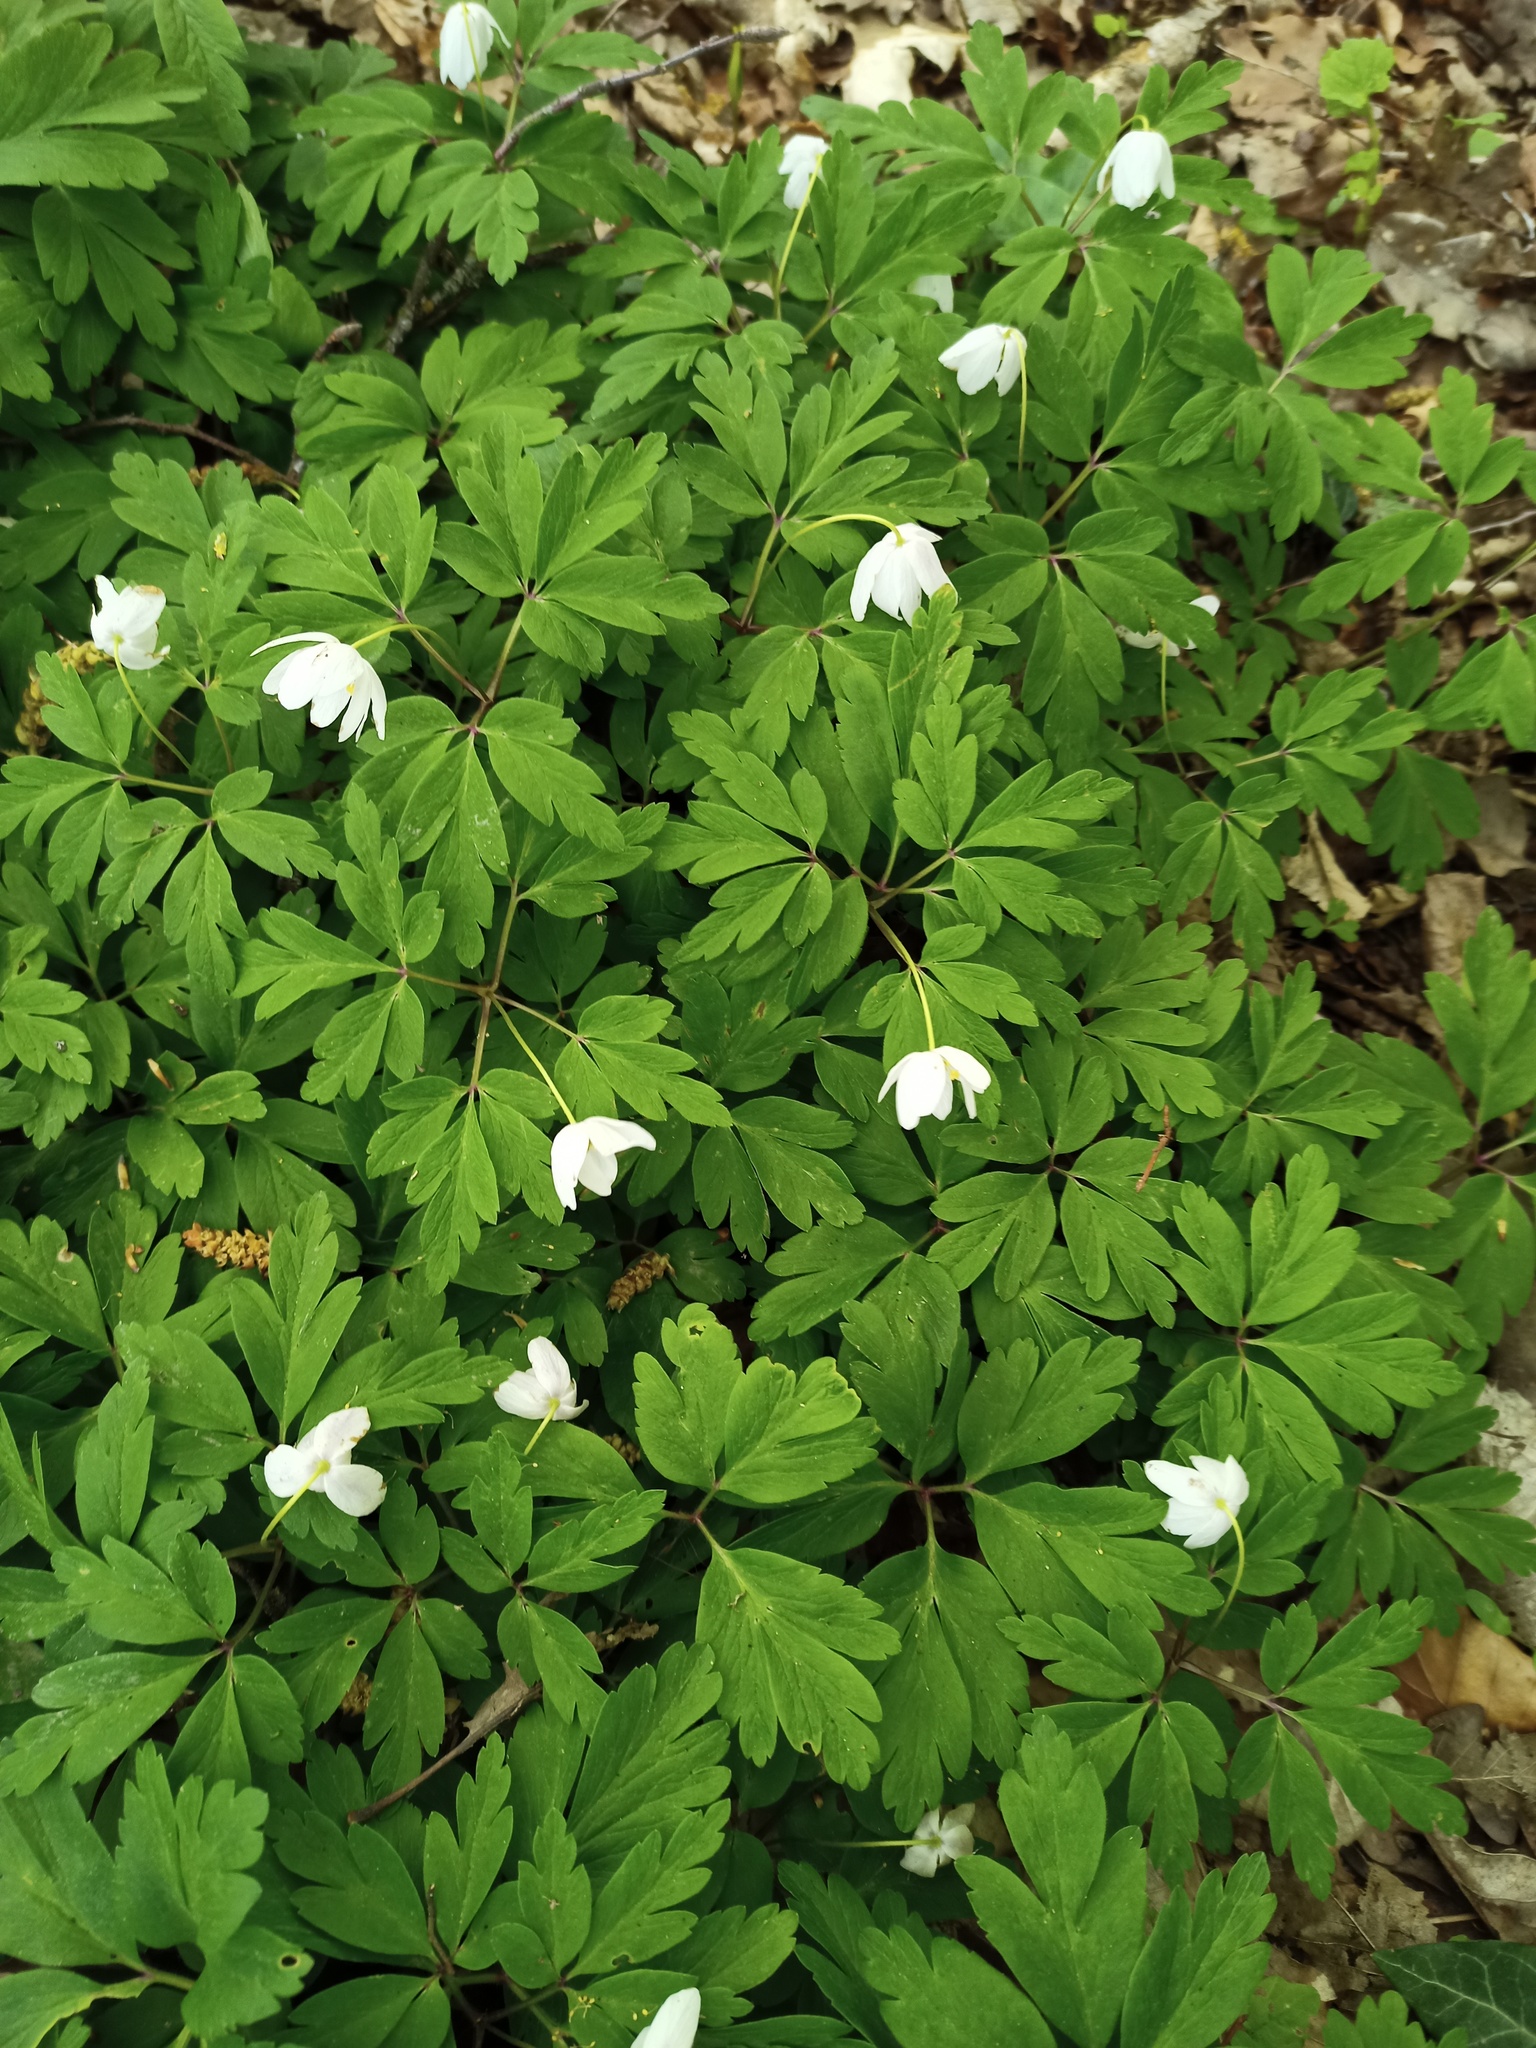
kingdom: Plantae
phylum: Tracheophyta
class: Magnoliopsida
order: Ranunculales
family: Ranunculaceae
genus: Anemone
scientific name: Anemone nemorosa
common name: Wood anemone
